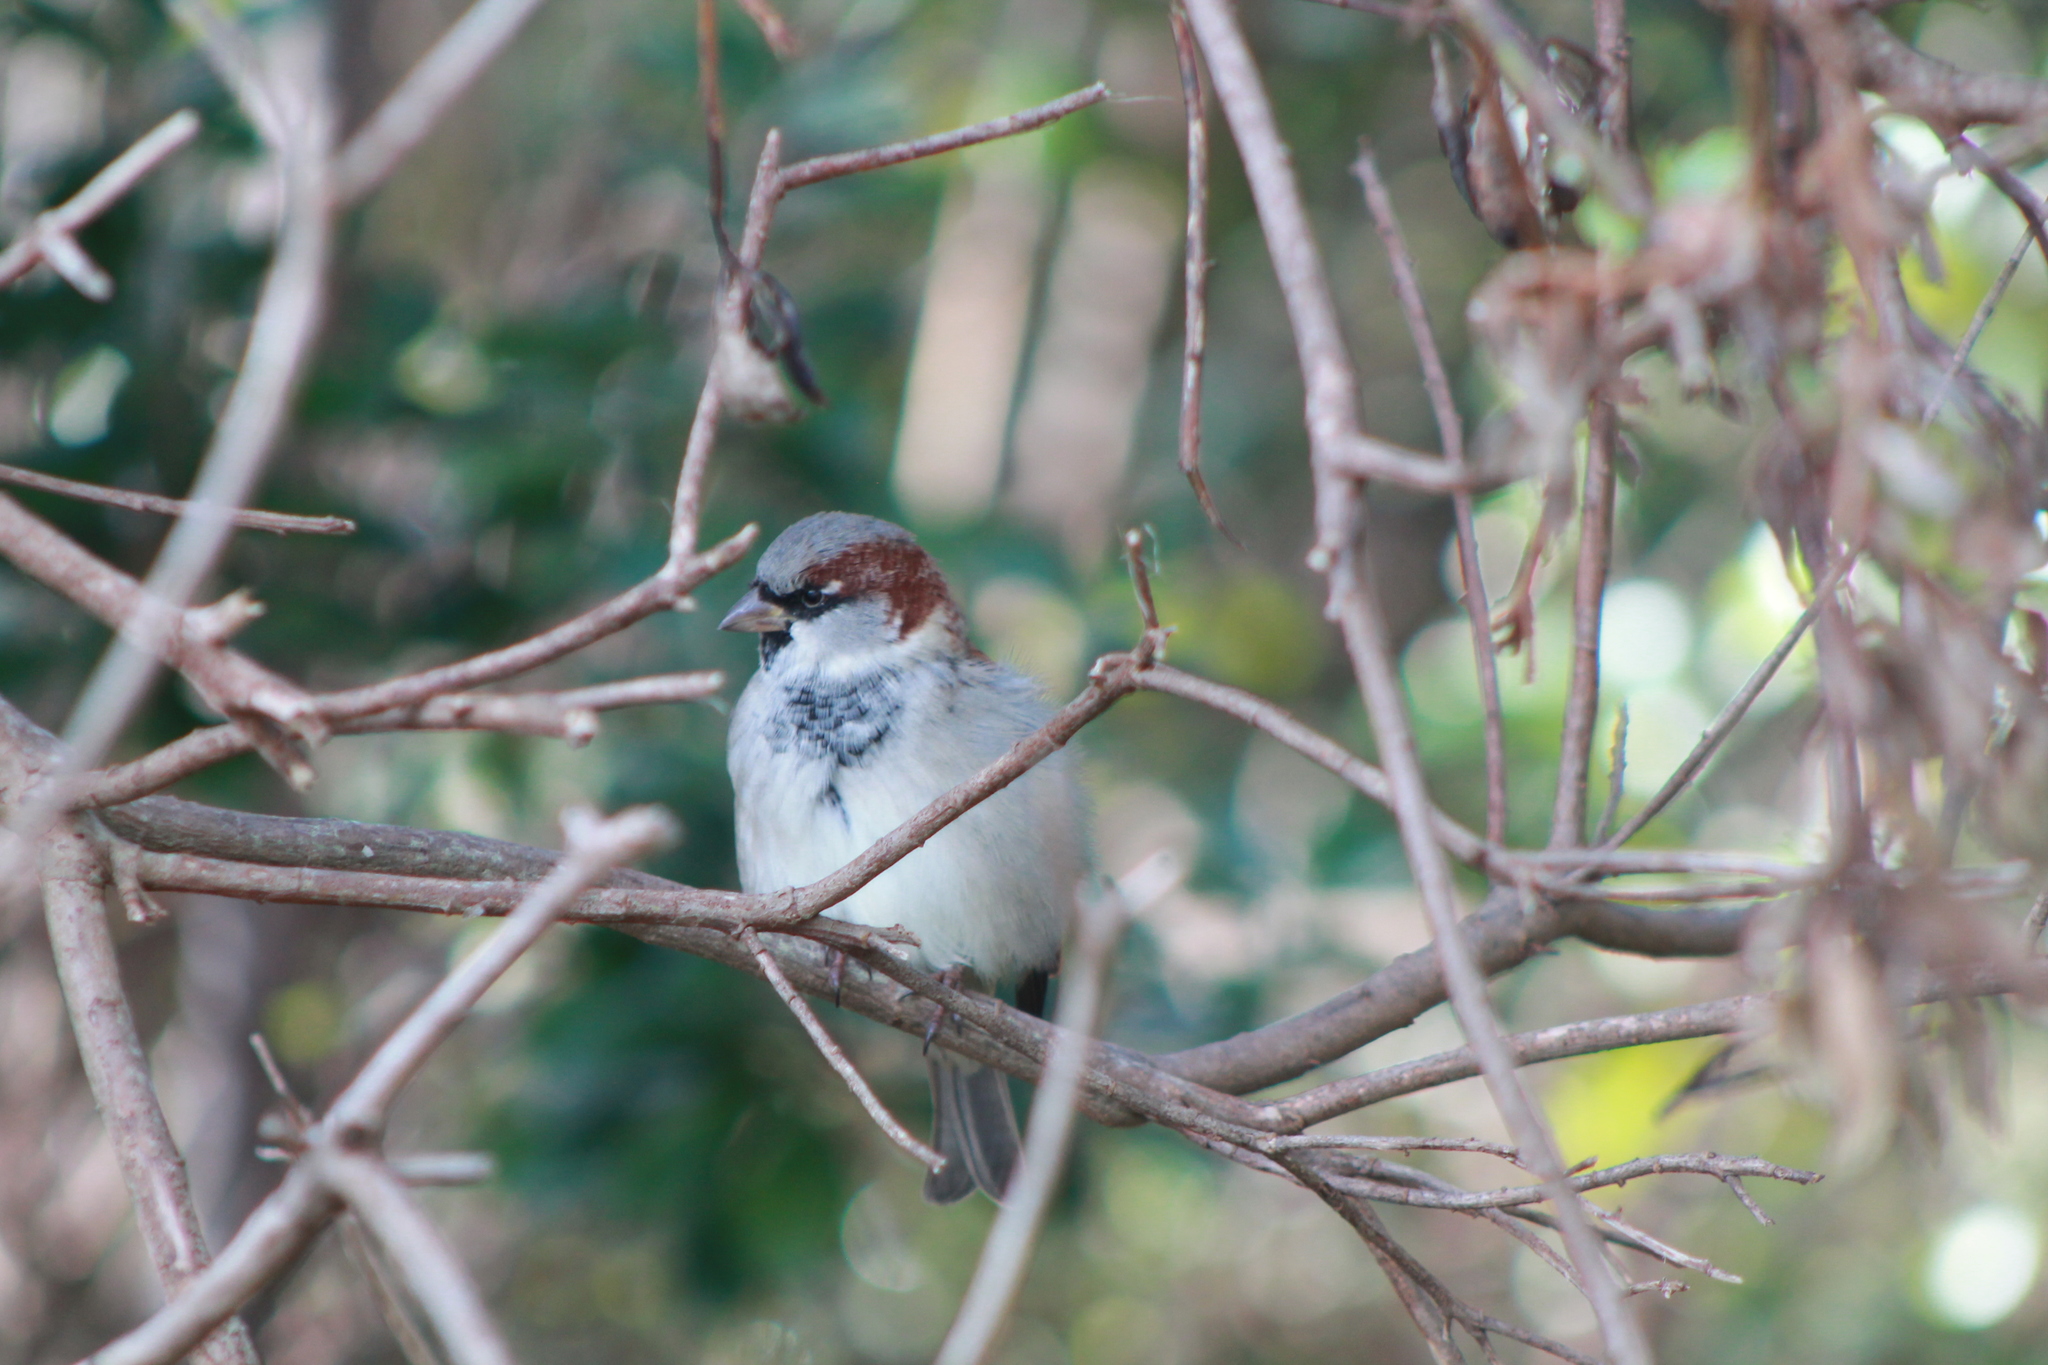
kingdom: Animalia
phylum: Chordata
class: Aves
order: Passeriformes
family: Passeridae
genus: Passer
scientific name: Passer domesticus
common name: House sparrow
